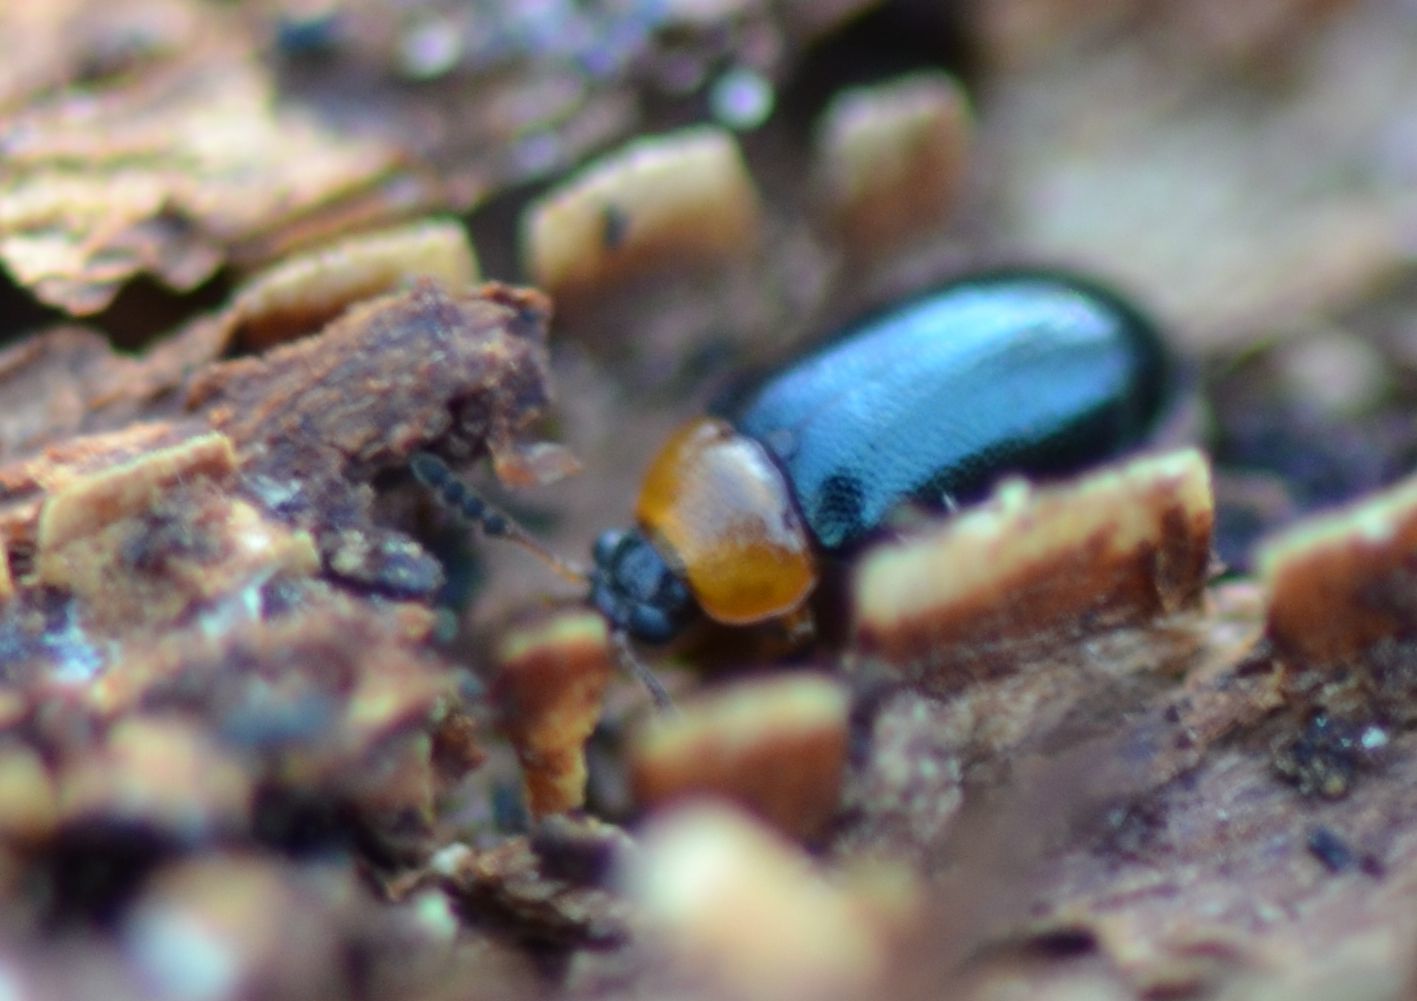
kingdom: Animalia
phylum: Arthropoda
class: Insecta
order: Coleoptera
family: Tetratomidae
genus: Tetratoma
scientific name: Tetratoma fungorum
